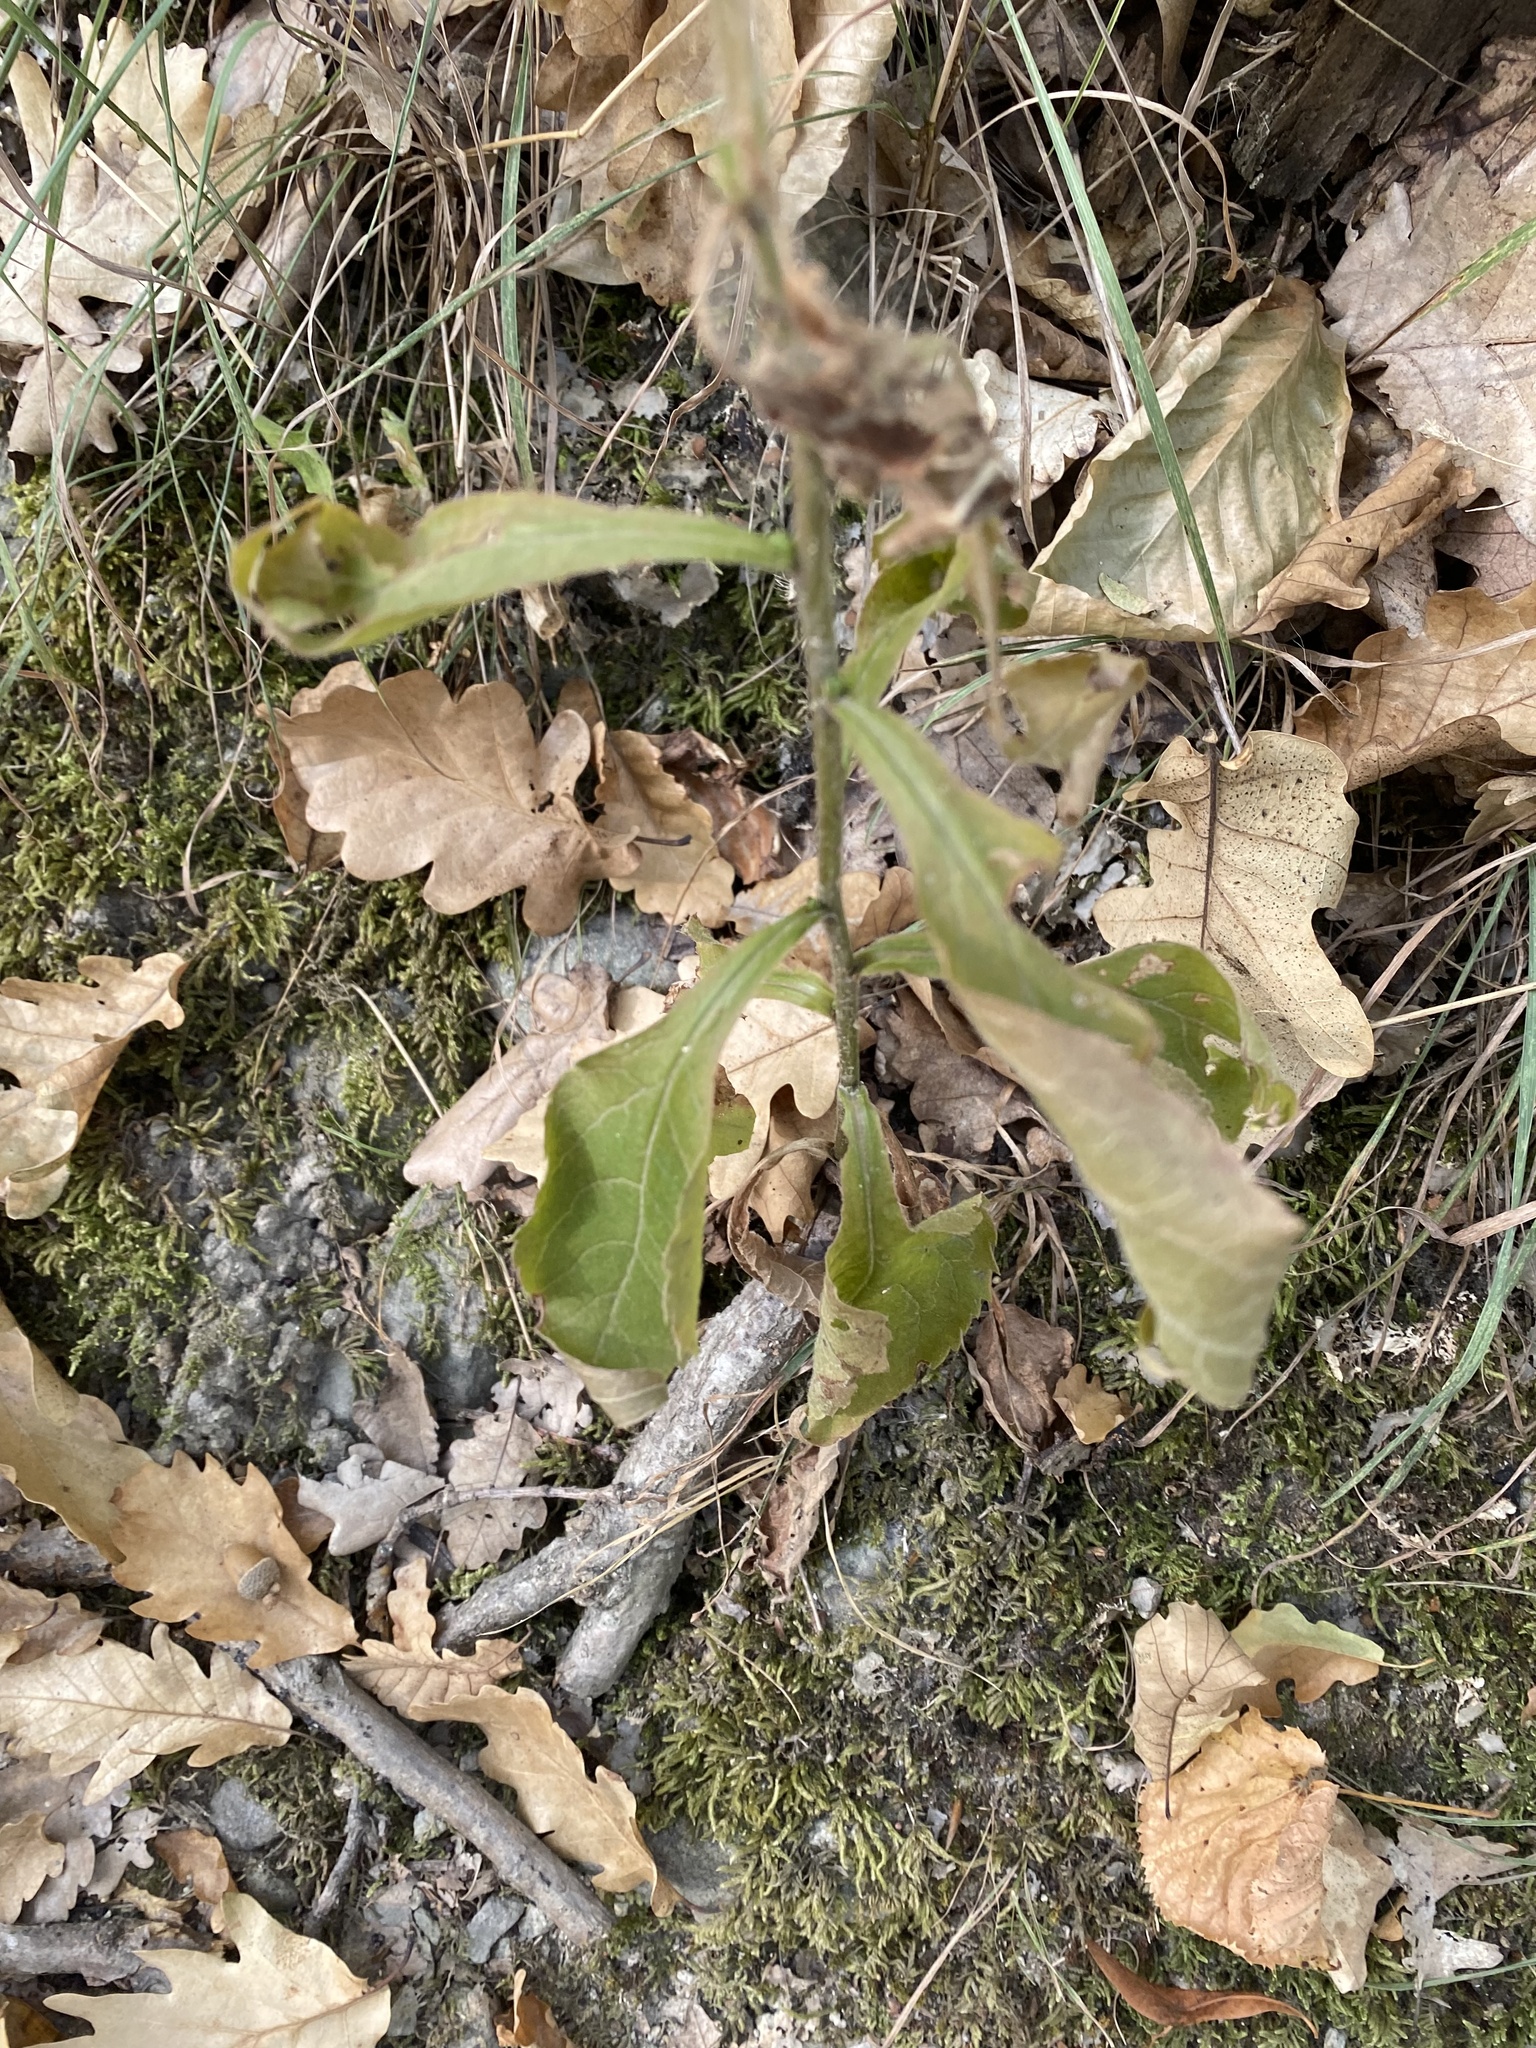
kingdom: Plantae
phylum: Tracheophyta
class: Magnoliopsida
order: Asterales
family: Asteraceae
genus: Solidago
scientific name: Solidago virgaurea
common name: Goldenrod
